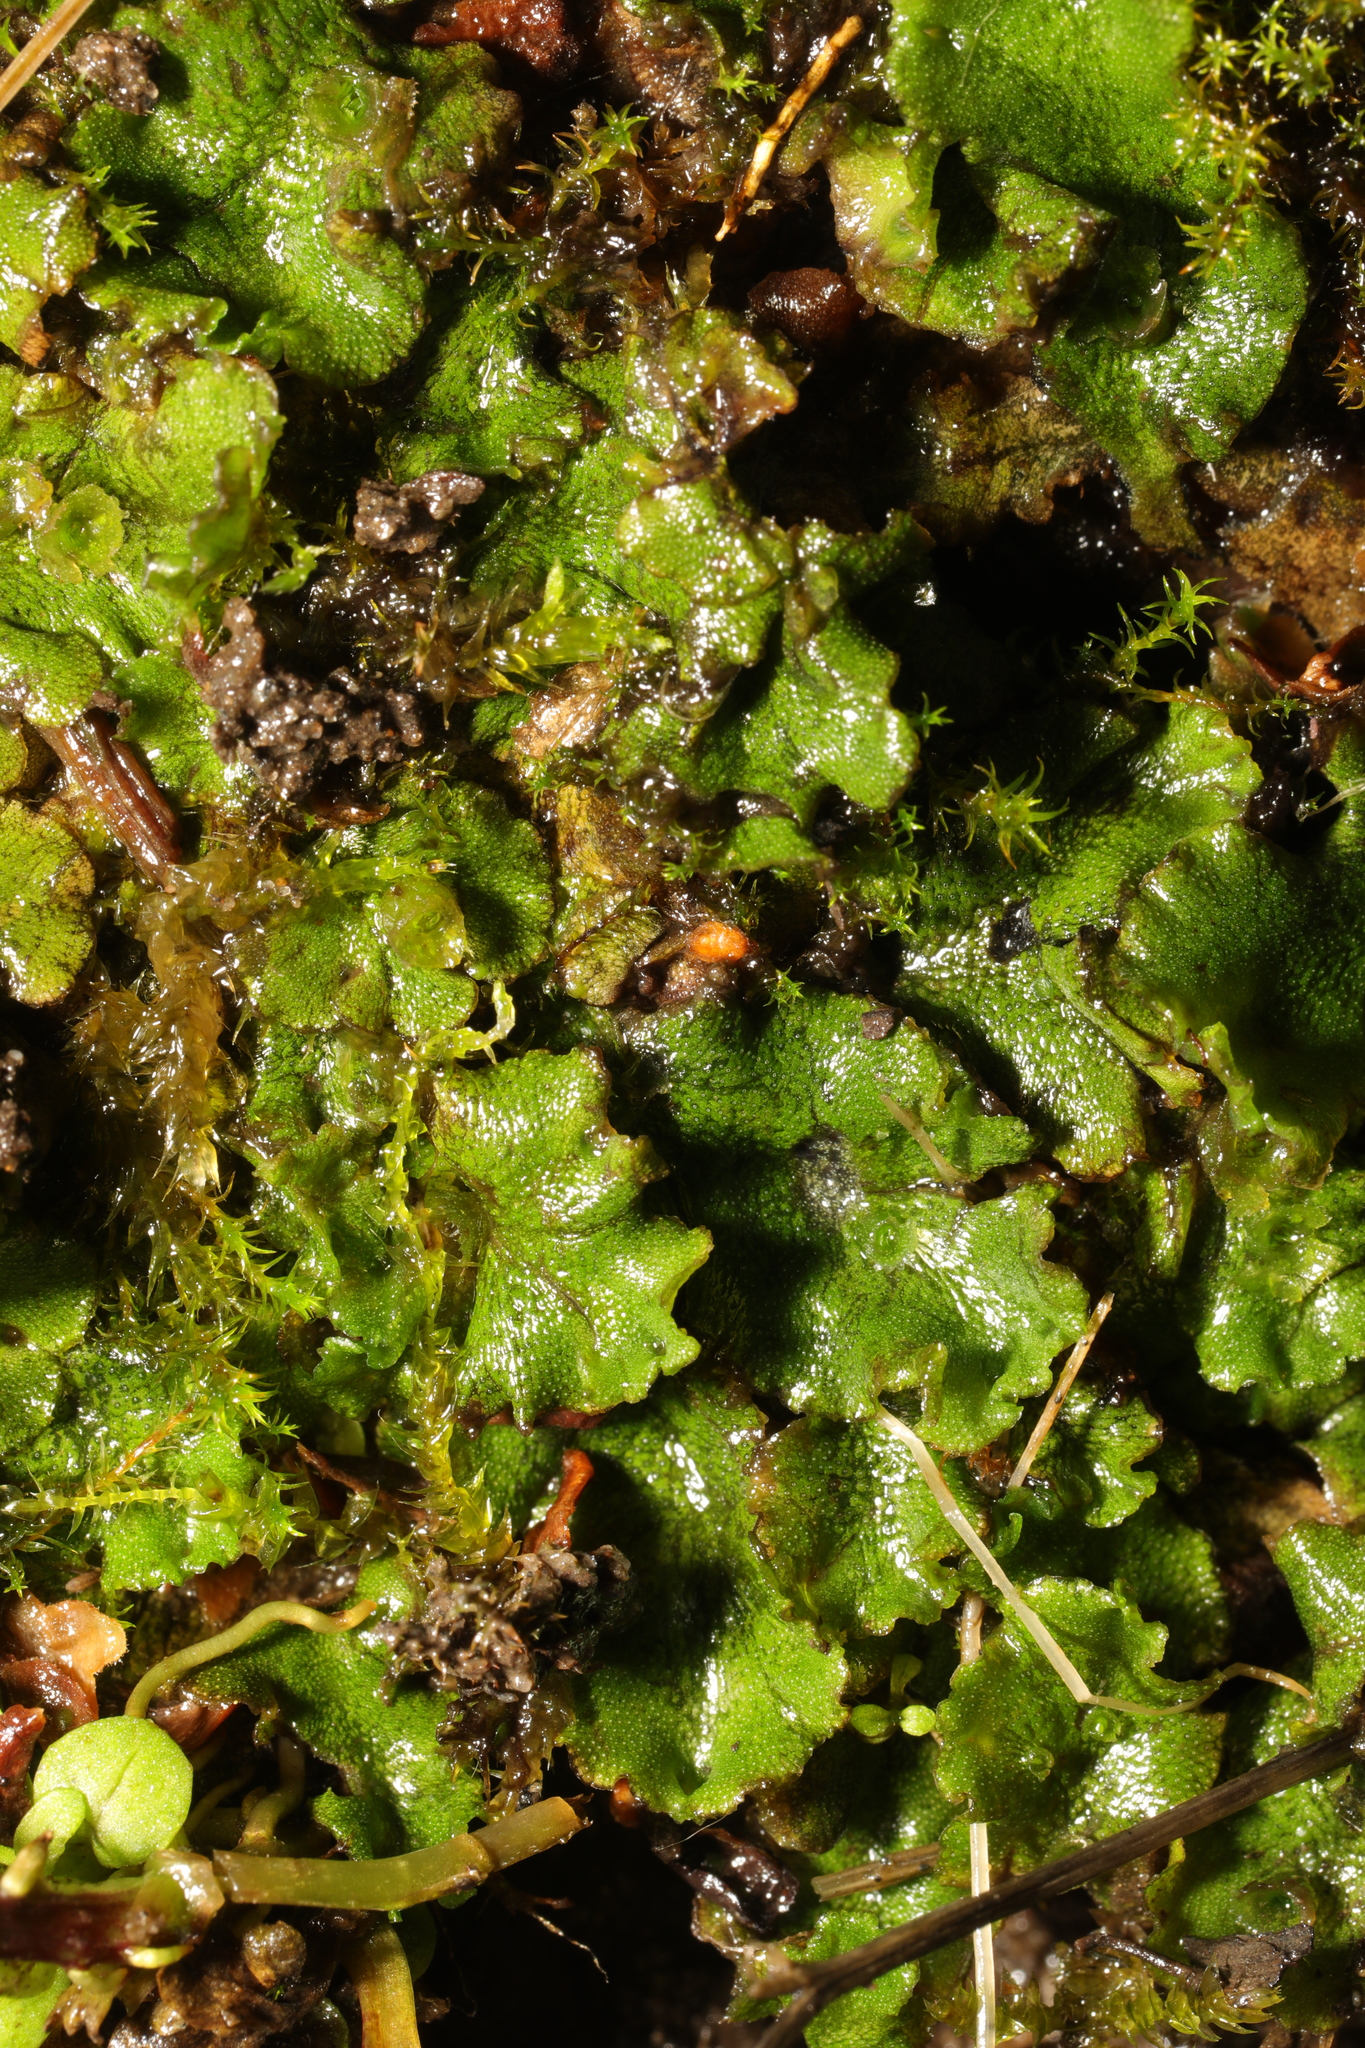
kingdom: Plantae
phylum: Marchantiophyta
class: Marchantiopsida
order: Marchantiales
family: Marchantiaceae
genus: Marchantia
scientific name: Marchantia polymorpha
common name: Common liverwort
